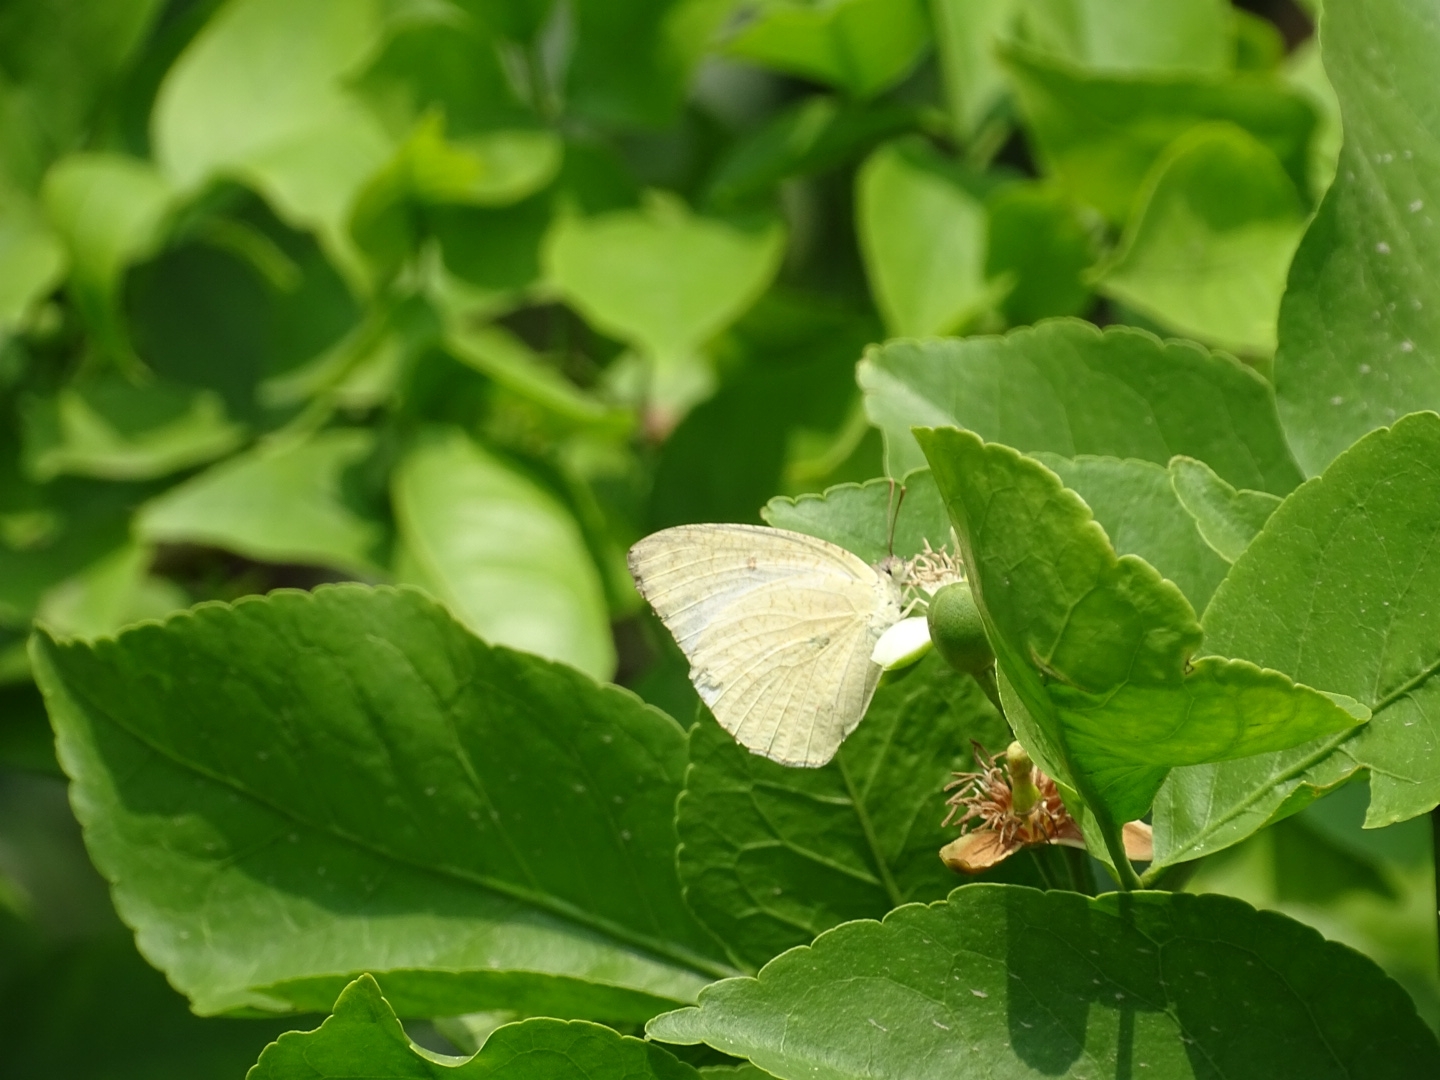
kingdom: Animalia
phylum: Arthropoda
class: Insecta
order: Lepidoptera
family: Pieridae
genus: Catopsilia
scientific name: Catopsilia pyranthe
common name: Mottled emigrant
